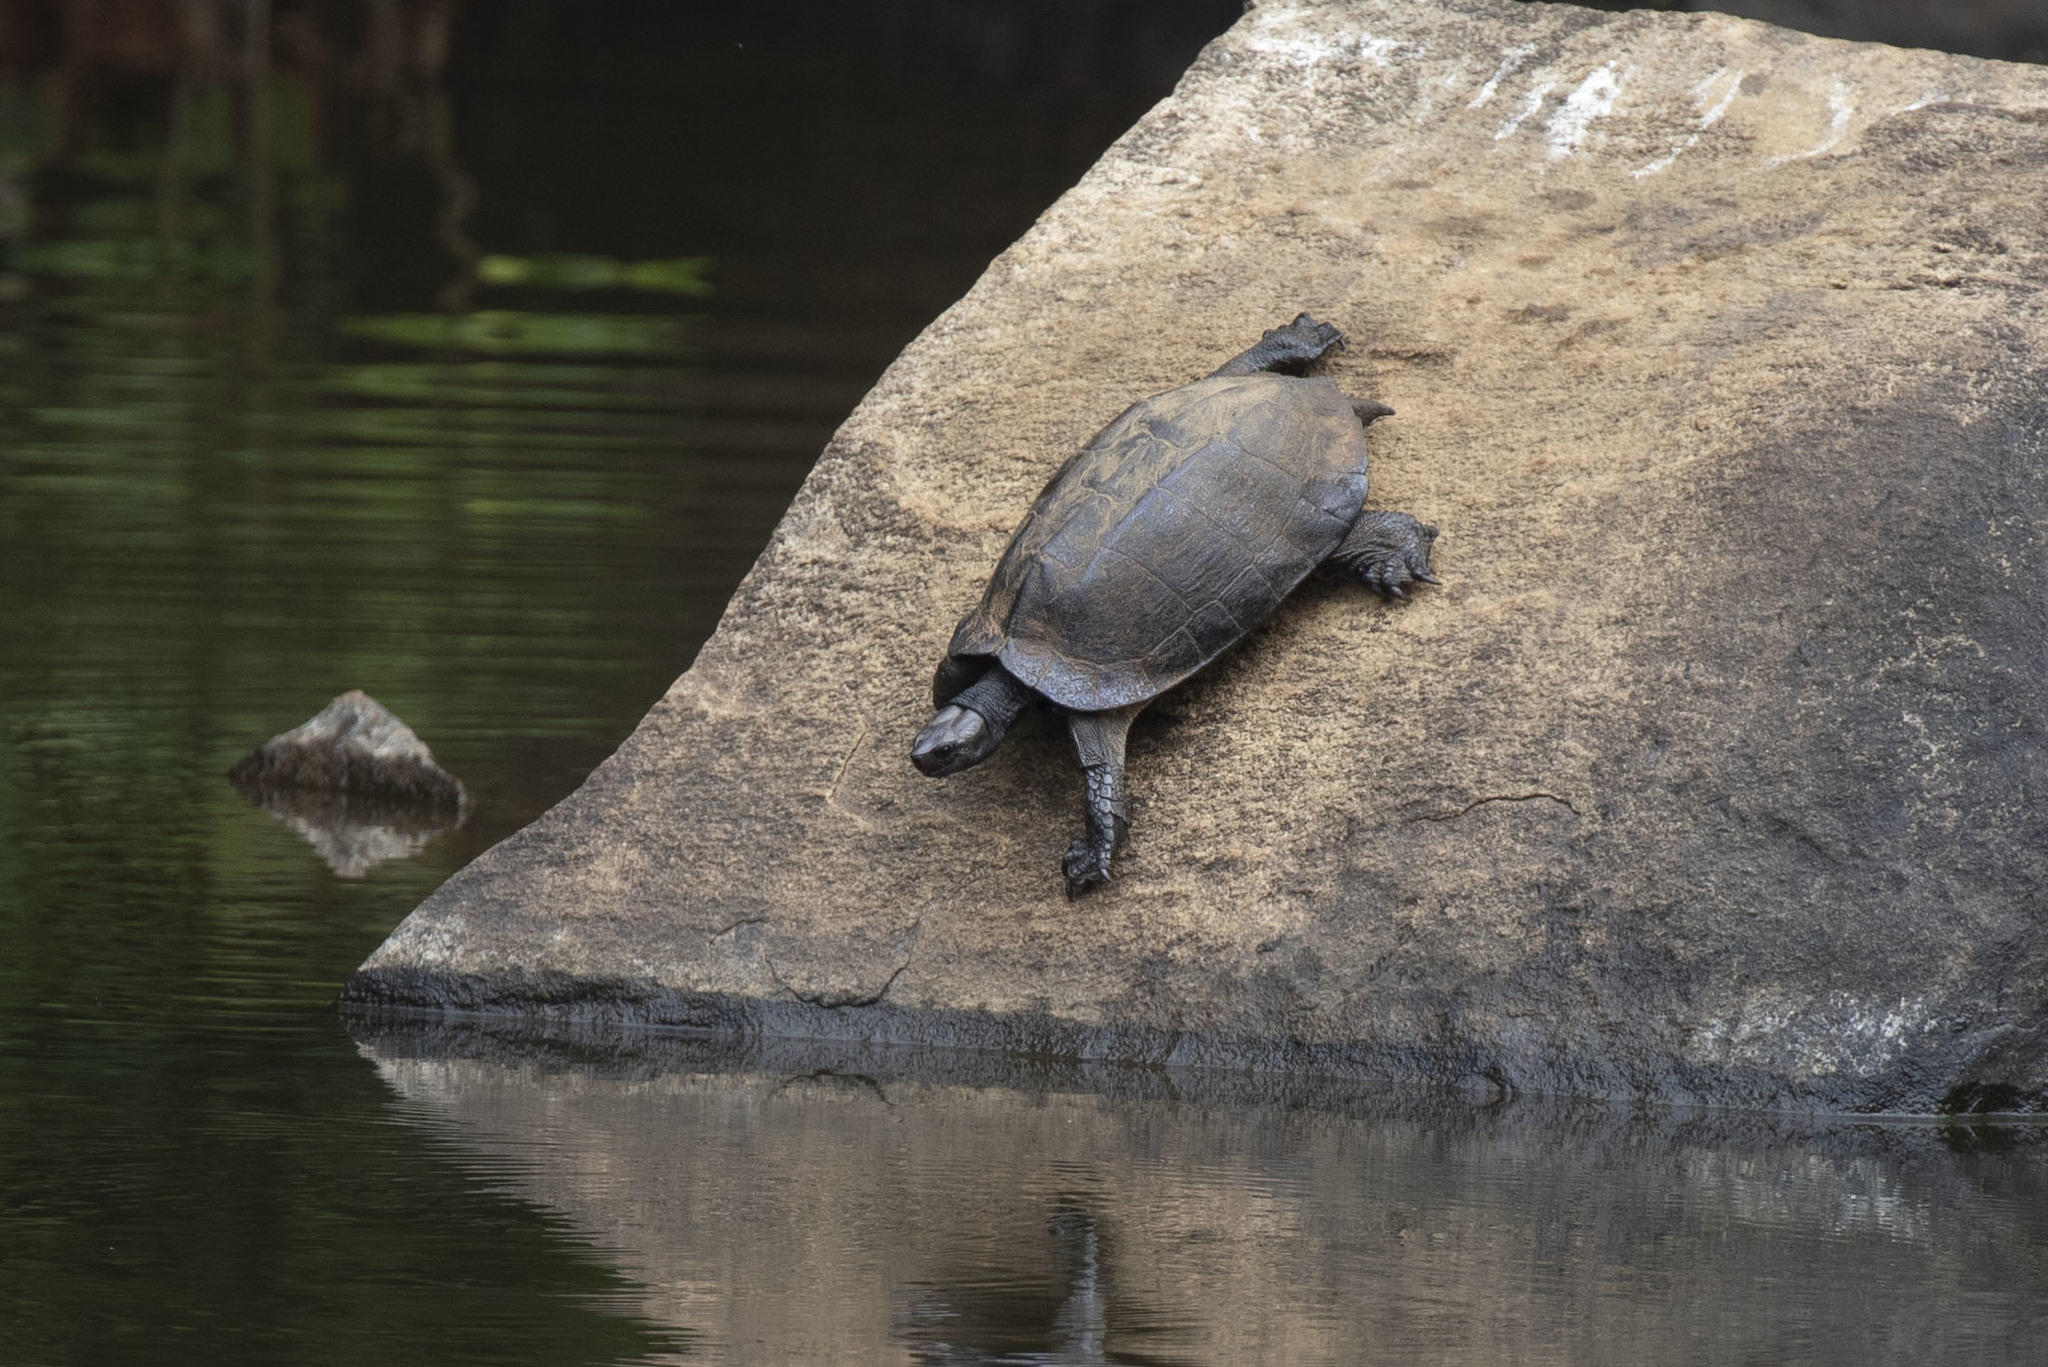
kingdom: Animalia
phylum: Chordata
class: Testudines
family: Geoemydidae
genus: Melanochelys
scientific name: Melanochelys trijuga
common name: Indian black turtle
